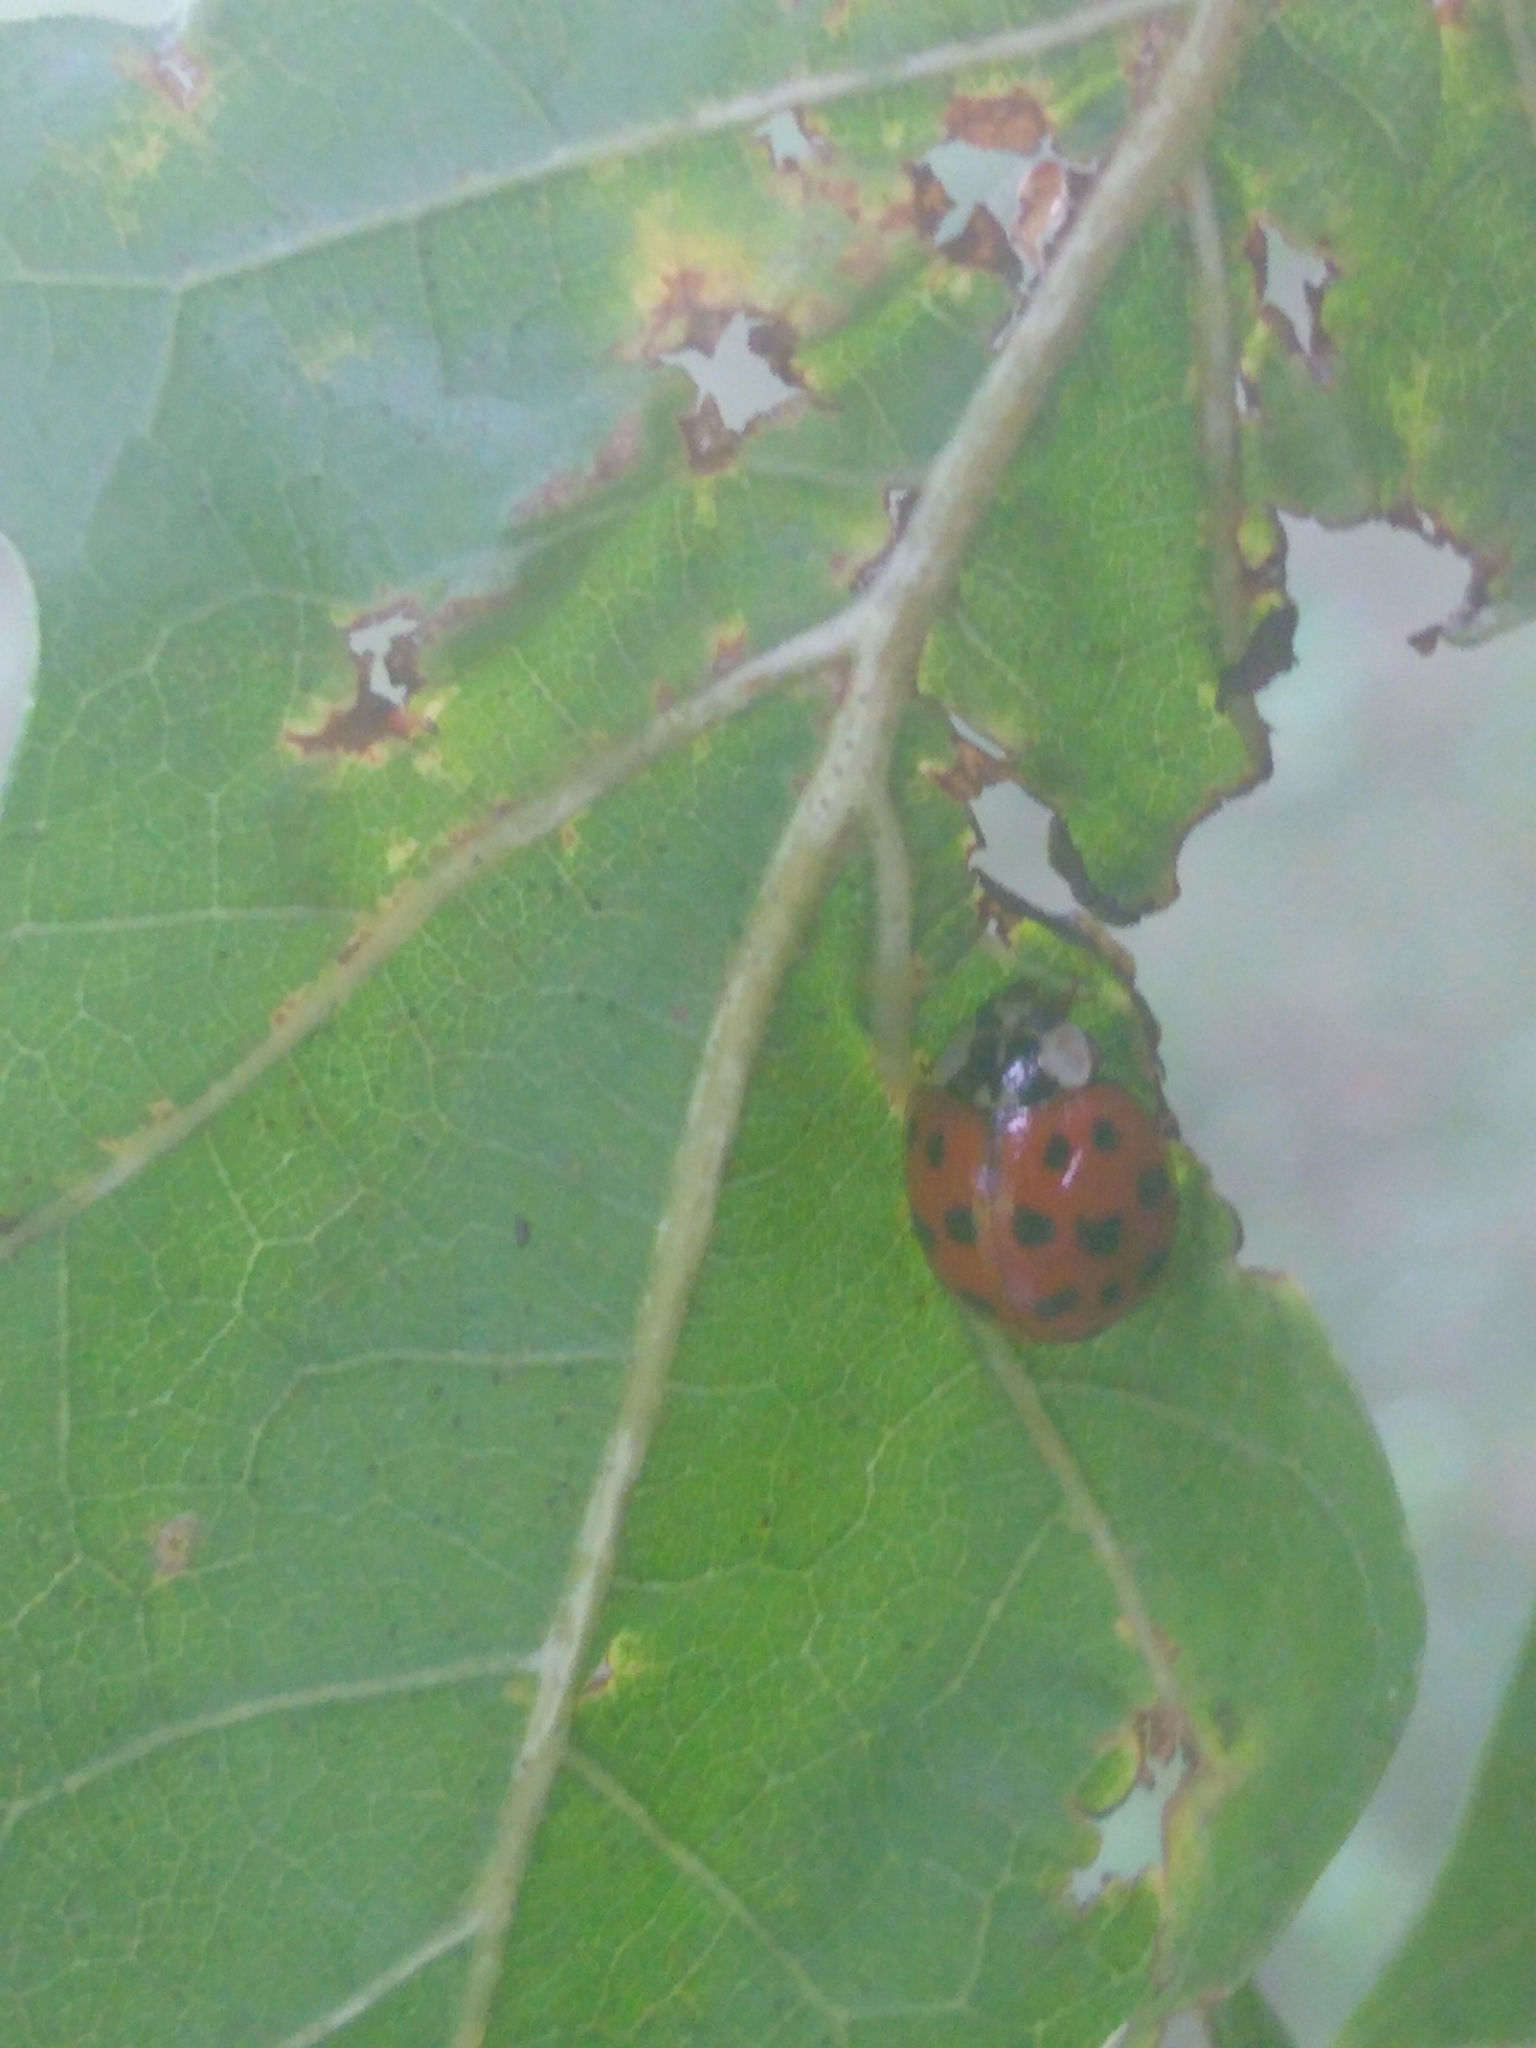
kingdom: Animalia
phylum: Arthropoda
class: Insecta
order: Coleoptera
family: Coccinellidae
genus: Harmonia
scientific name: Harmonia axyridis
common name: Harlequin ladybird
